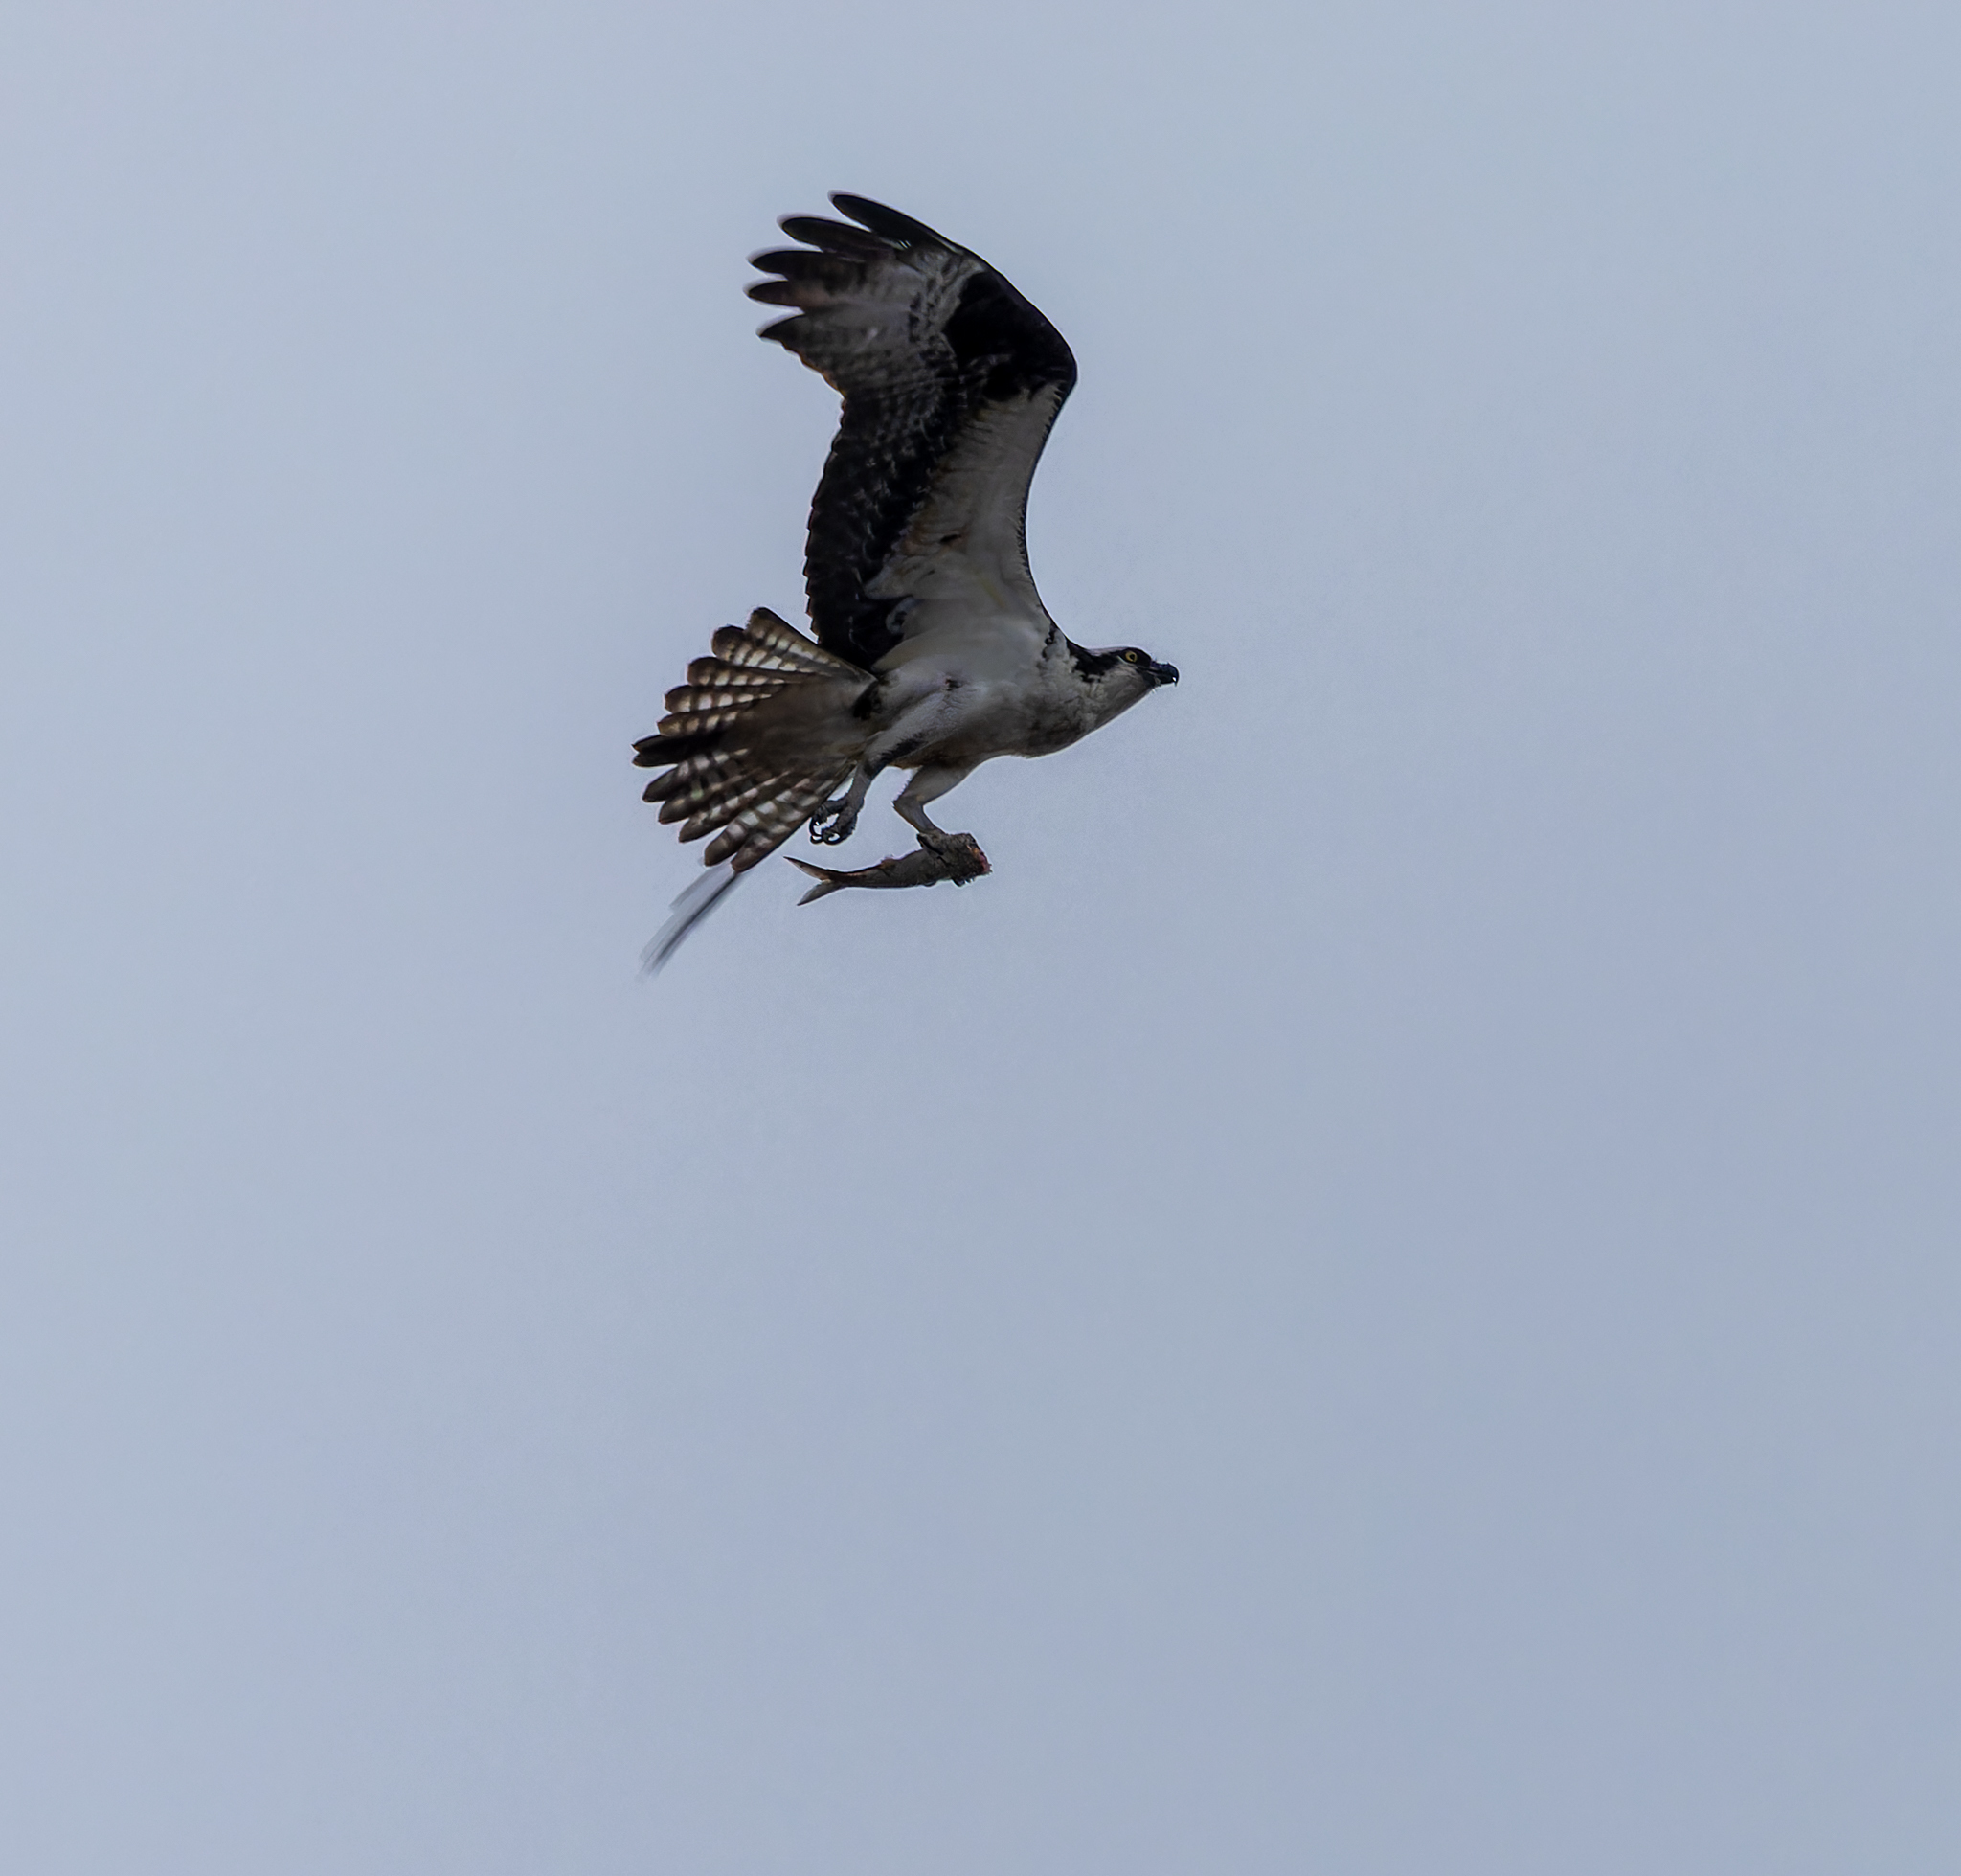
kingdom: Animalia
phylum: Chordata
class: Aves
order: Accipitriformes
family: Pandionidae
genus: Pandion
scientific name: Pandion haliaetus
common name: Osprey
